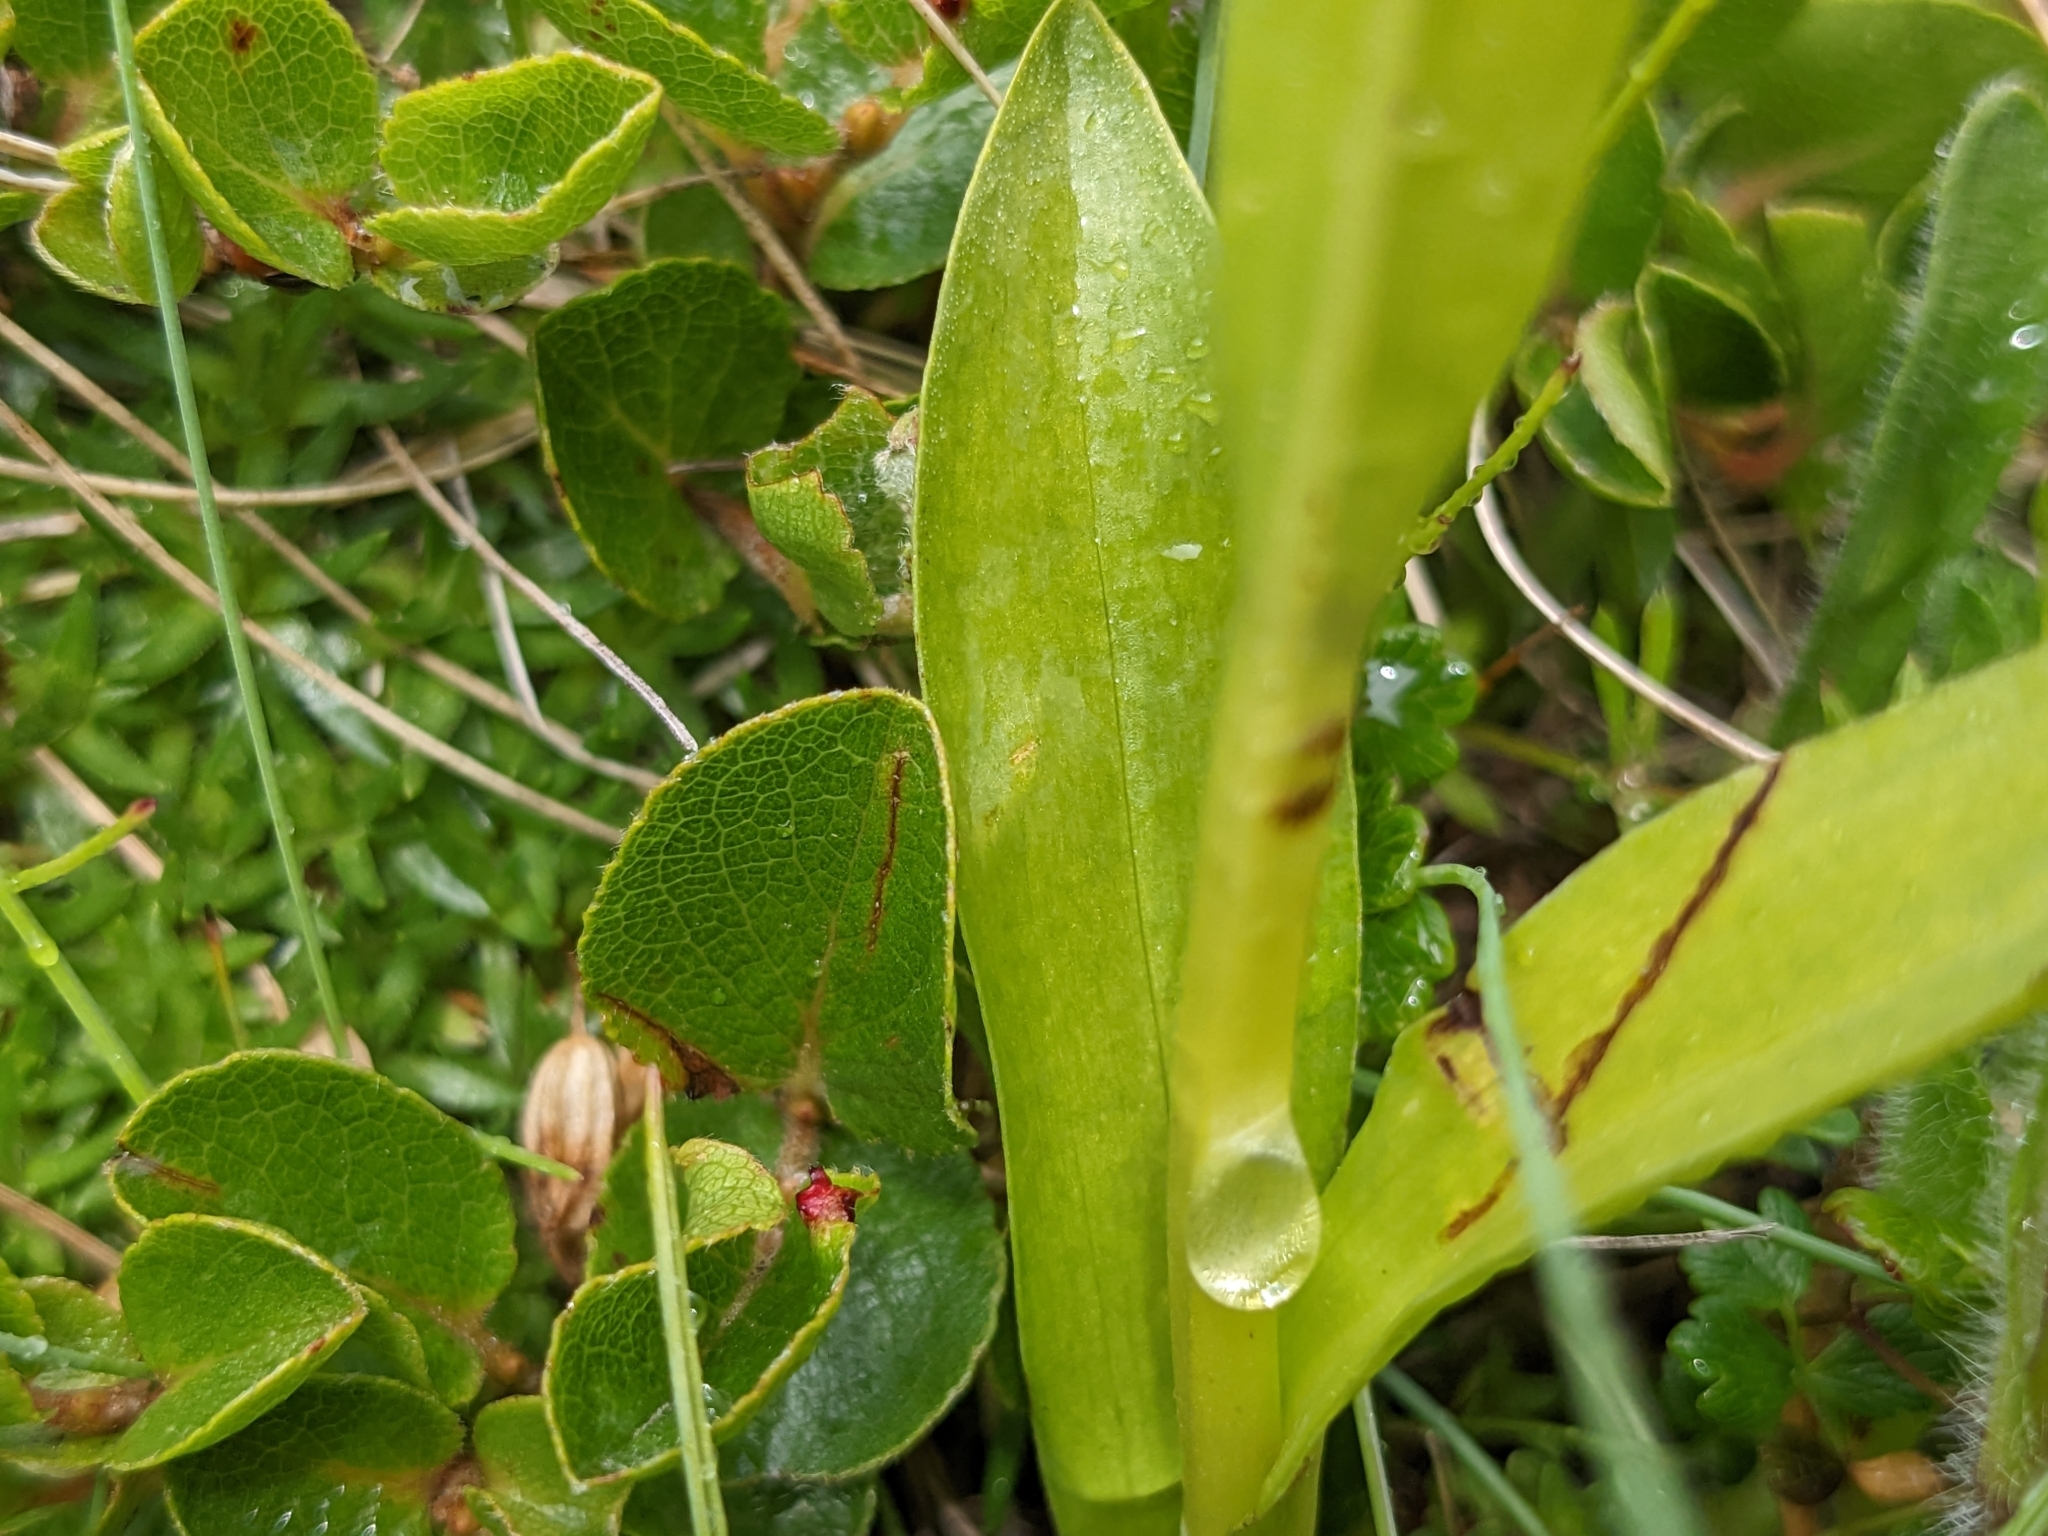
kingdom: Plantae
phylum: Tracheophyta
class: Liliopsida
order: Asparagales
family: Orchidaceae
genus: Pseudorchis
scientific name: Pseudorchis albida
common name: Small-white orchid
